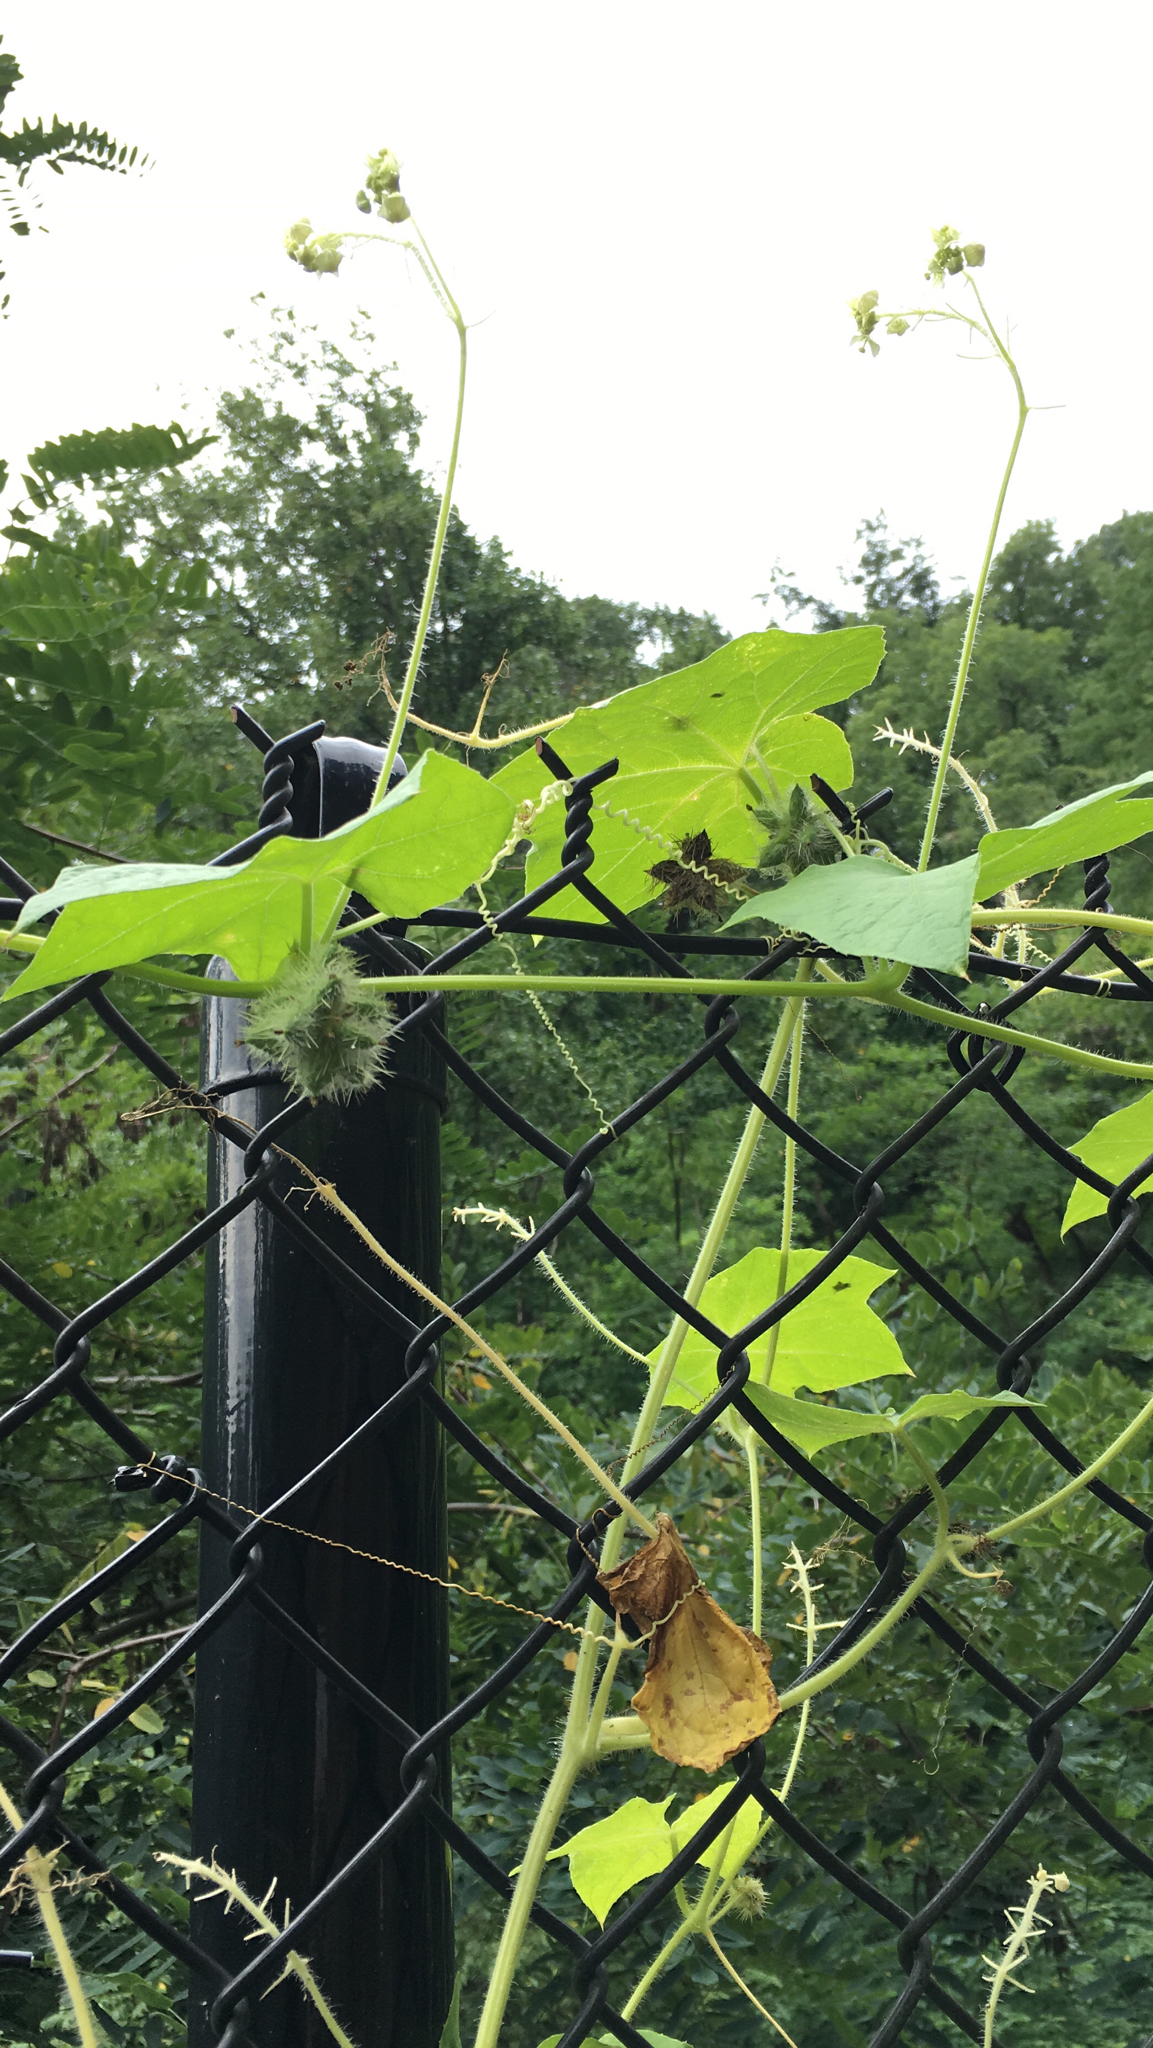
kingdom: Plantae
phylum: Tracheophyta
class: Magnoliopsida
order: Cucurbitales
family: Cucurbitaceae
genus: Sicyos
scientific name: Sicyos angulatus
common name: Angled burr cucumber
